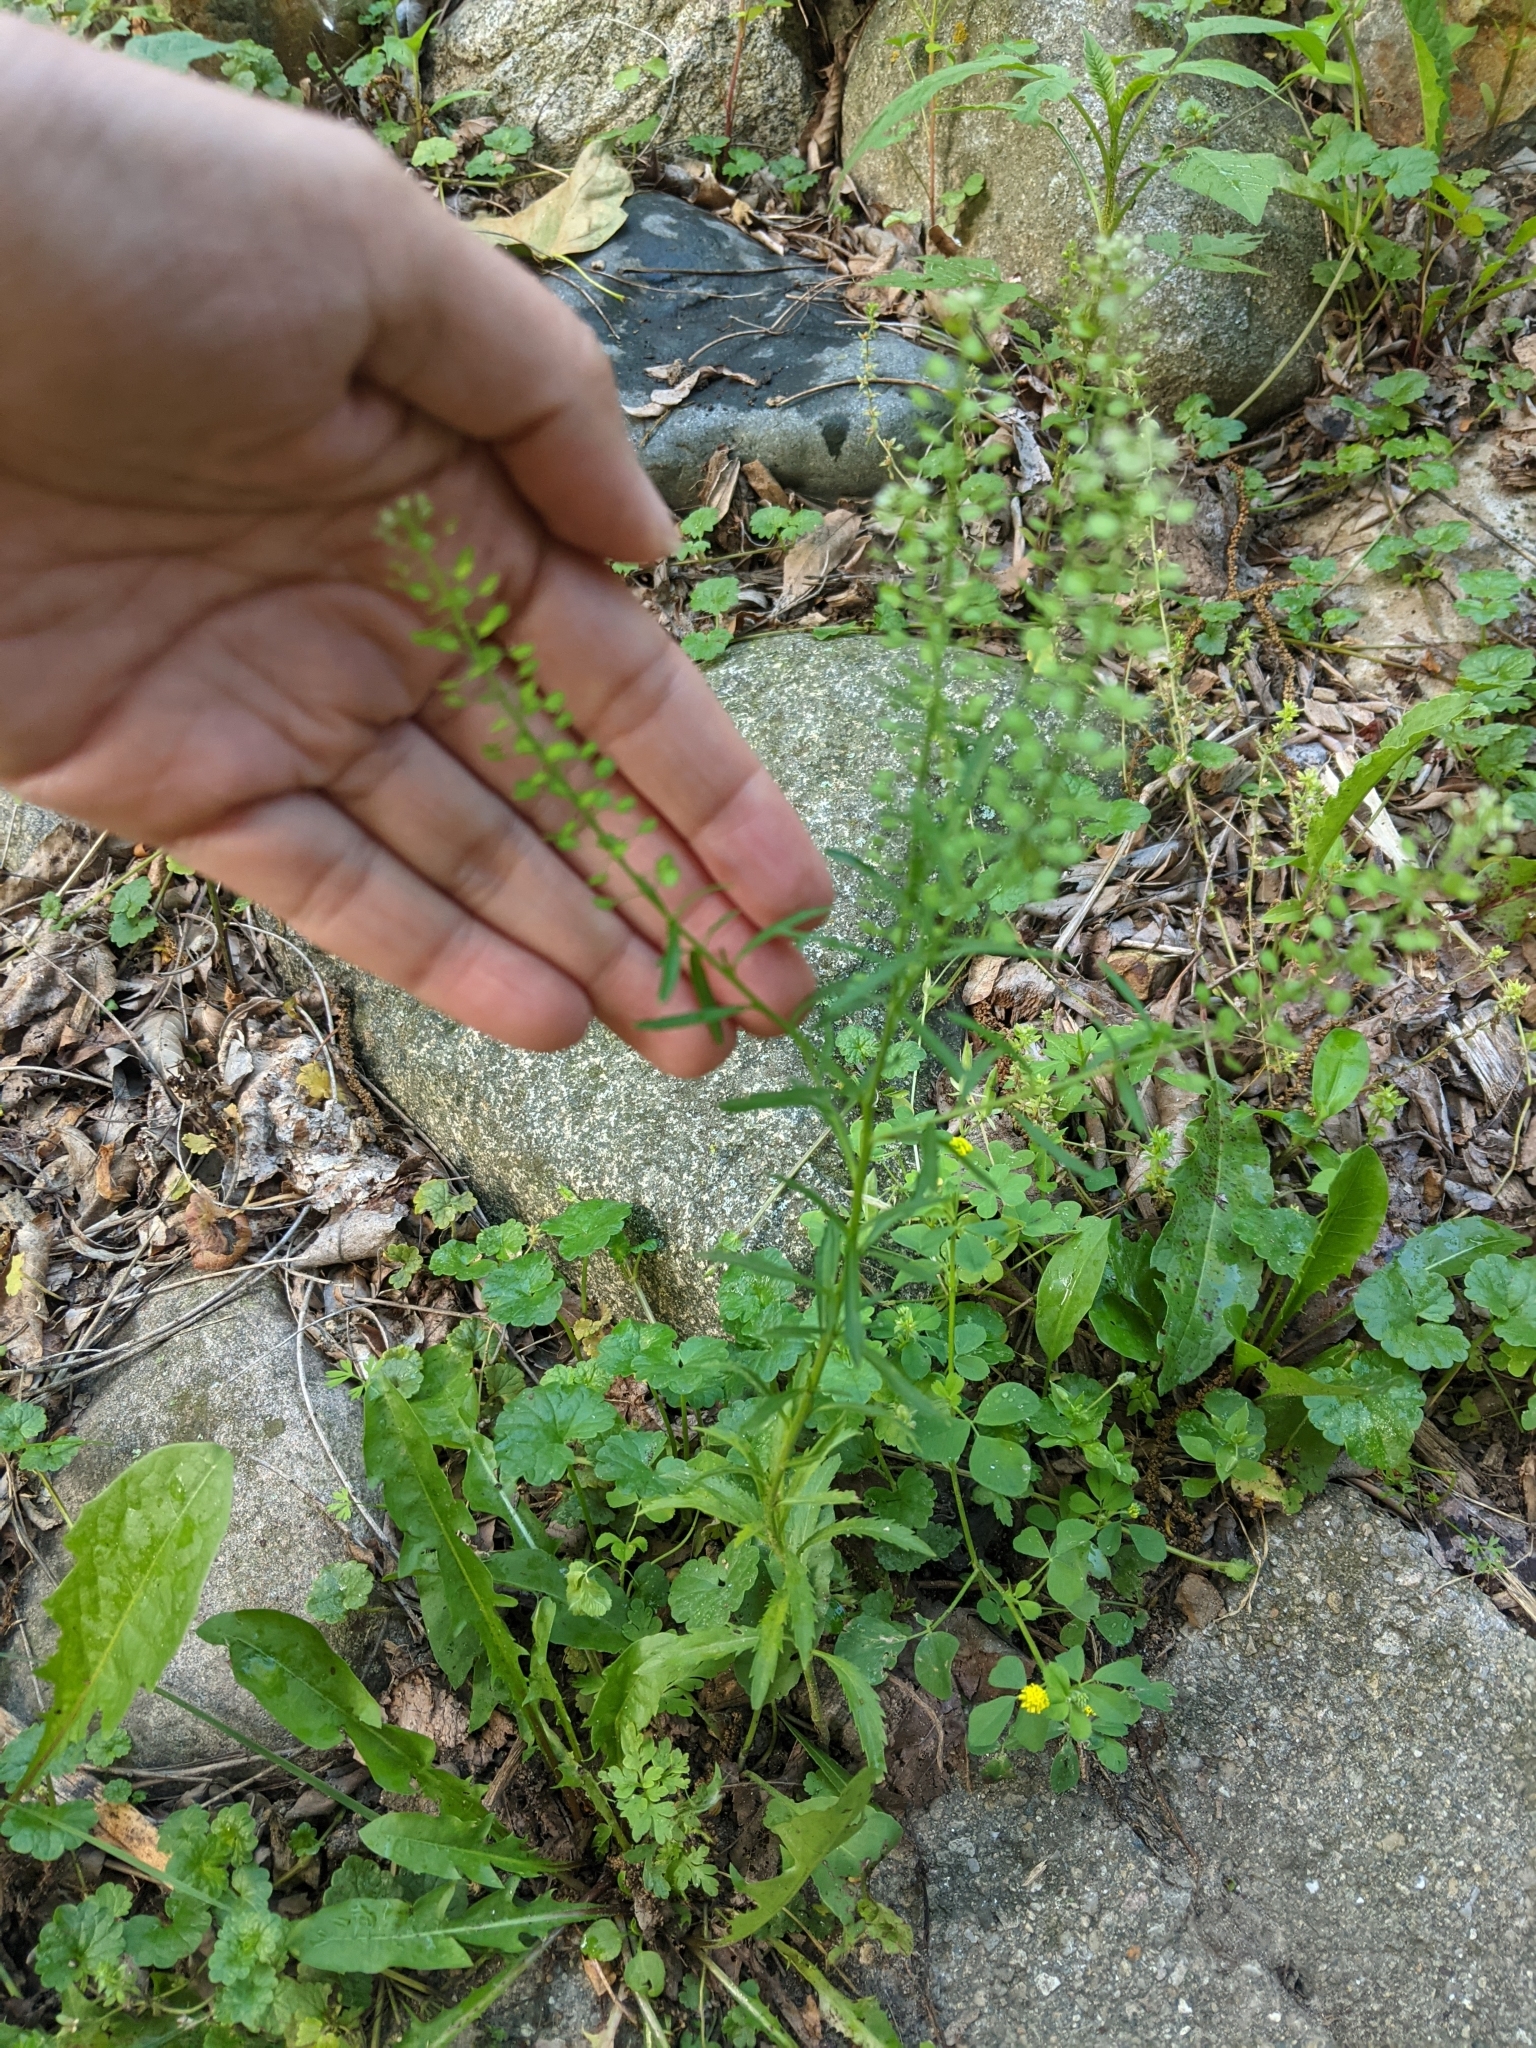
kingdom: Plantae
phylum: Tracheophyta
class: Magnoliopsida
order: Brassicales
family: Brassicaceae
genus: Lepidium
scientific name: Lepidium virginicum
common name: Least pepperwort
